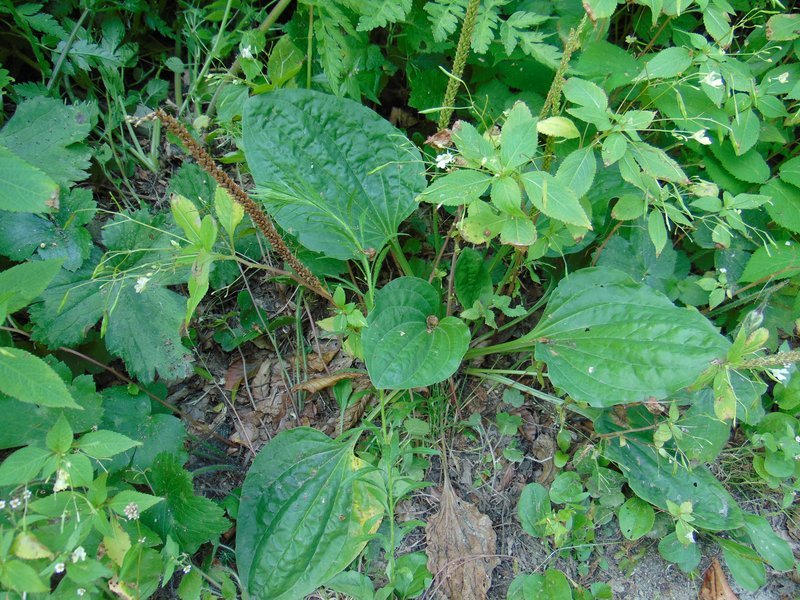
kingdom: Plantae
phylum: Tracheophyta
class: Magnoliopsida
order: Lamiales
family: Plantaginaceae
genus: Plantago
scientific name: Plantago major
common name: Common plantain
